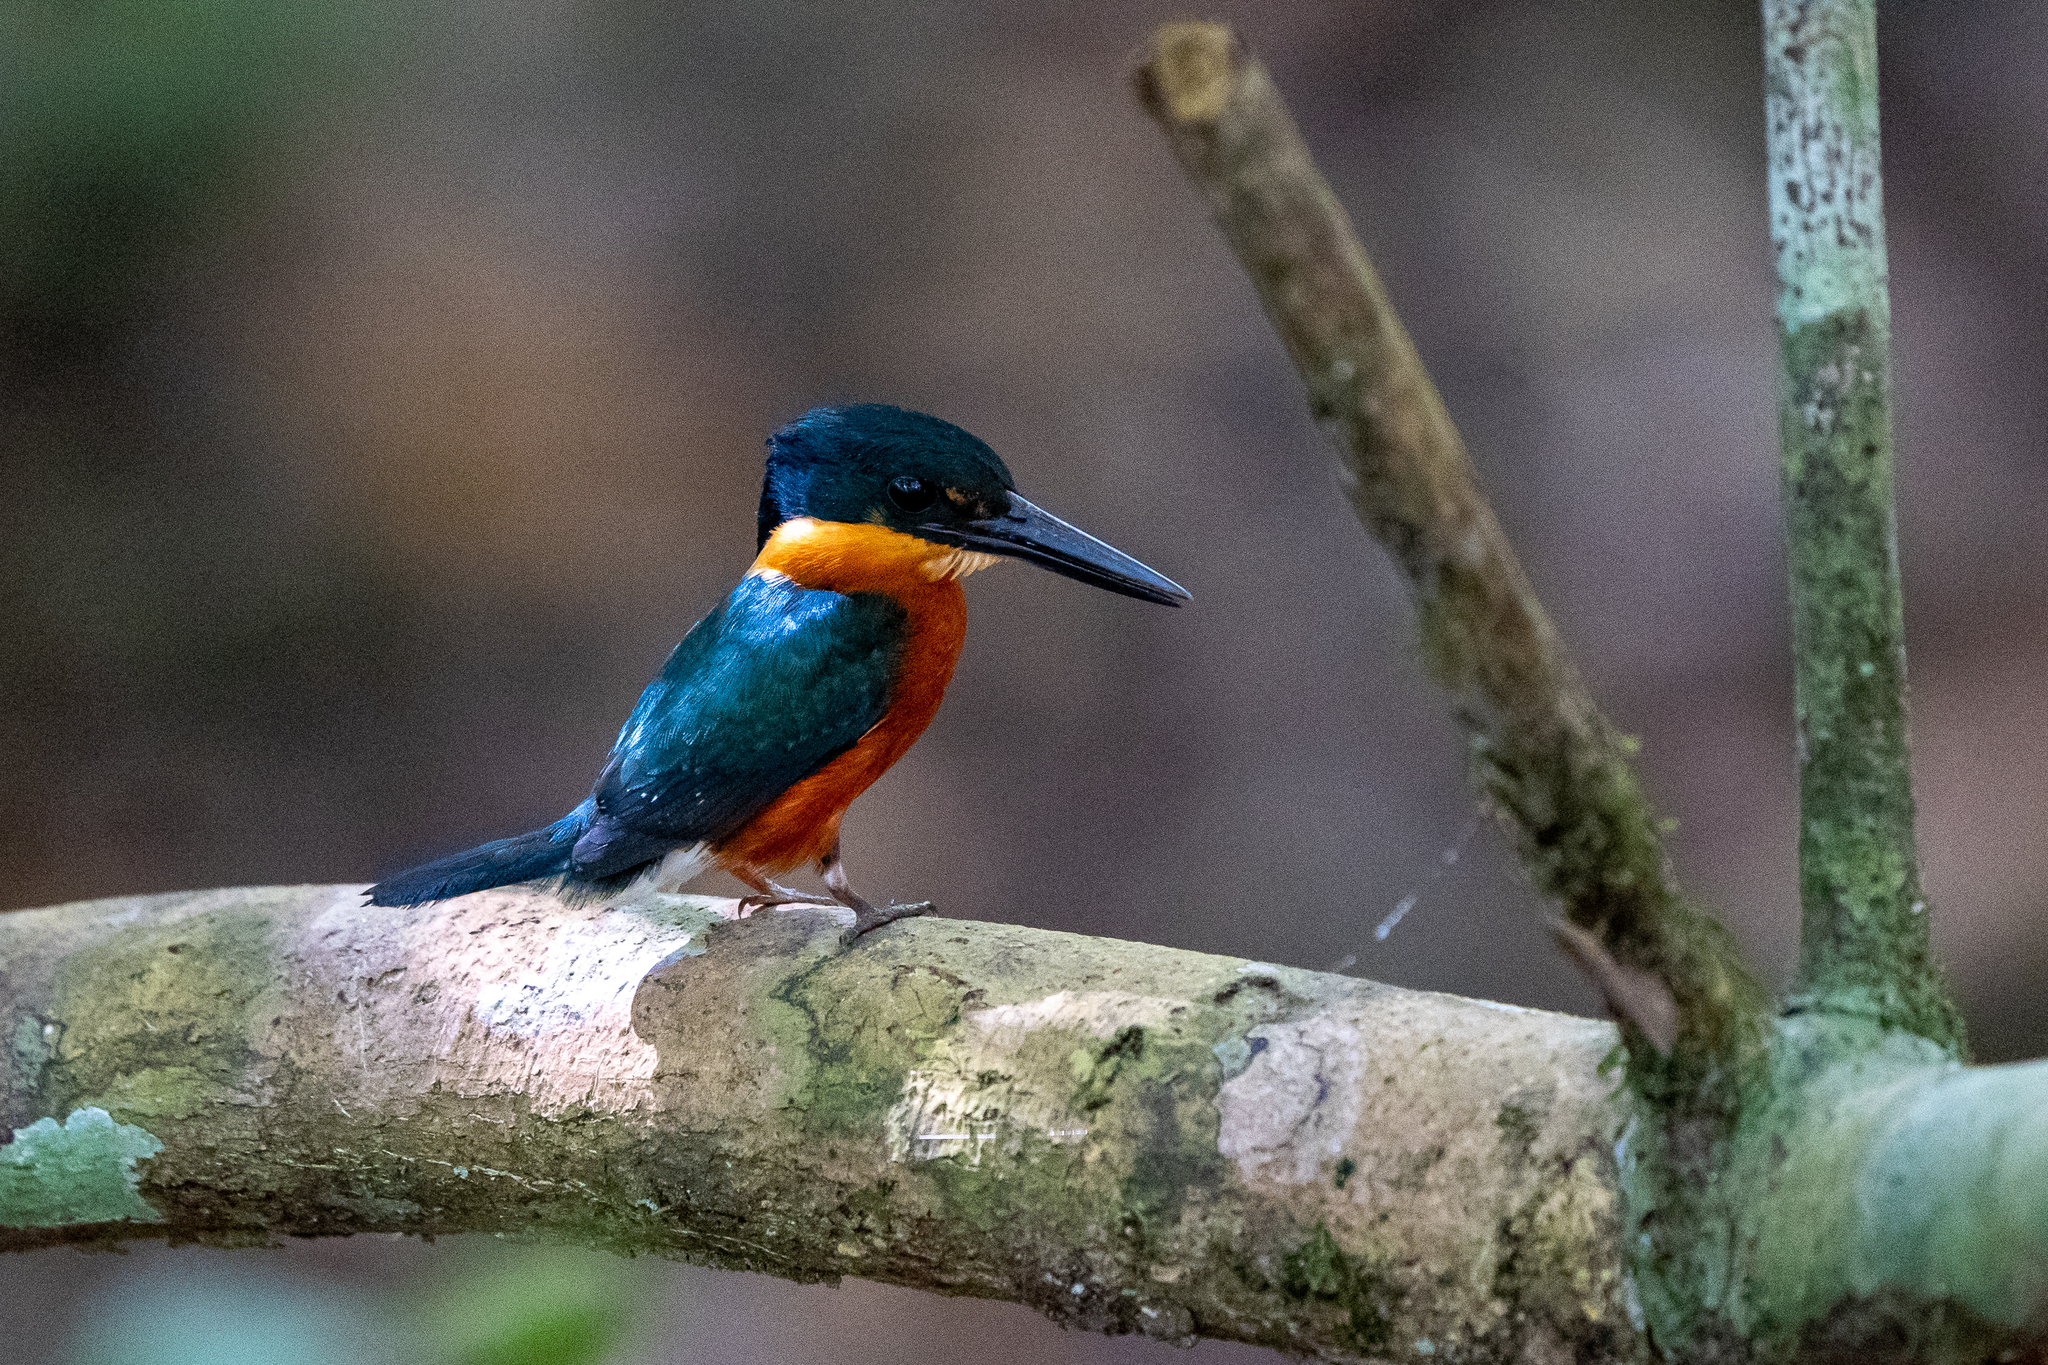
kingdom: Animalia
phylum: Chordata
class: Aves
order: Coraciiformes
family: Alcedinidae
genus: Chloroceryle
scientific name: Chloroceryle aenea
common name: American pygmy kingfisher
